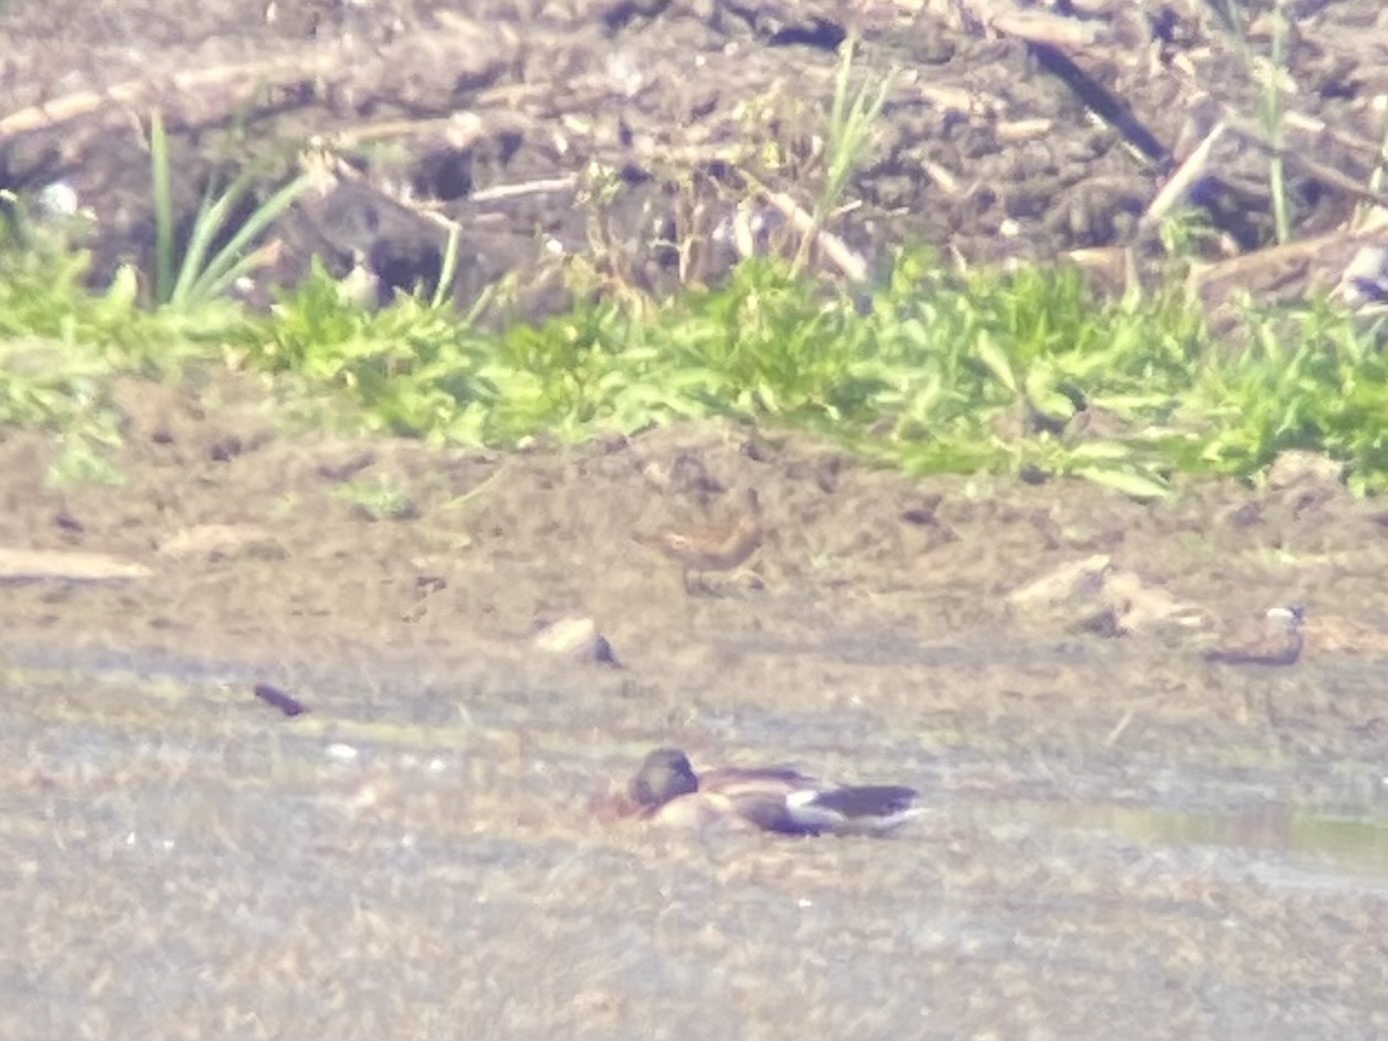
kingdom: Animalia
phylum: Chordata
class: Aves
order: Anseriformes
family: Anatidae
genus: Anas
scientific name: Anas platyrhynchos
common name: Mallard
